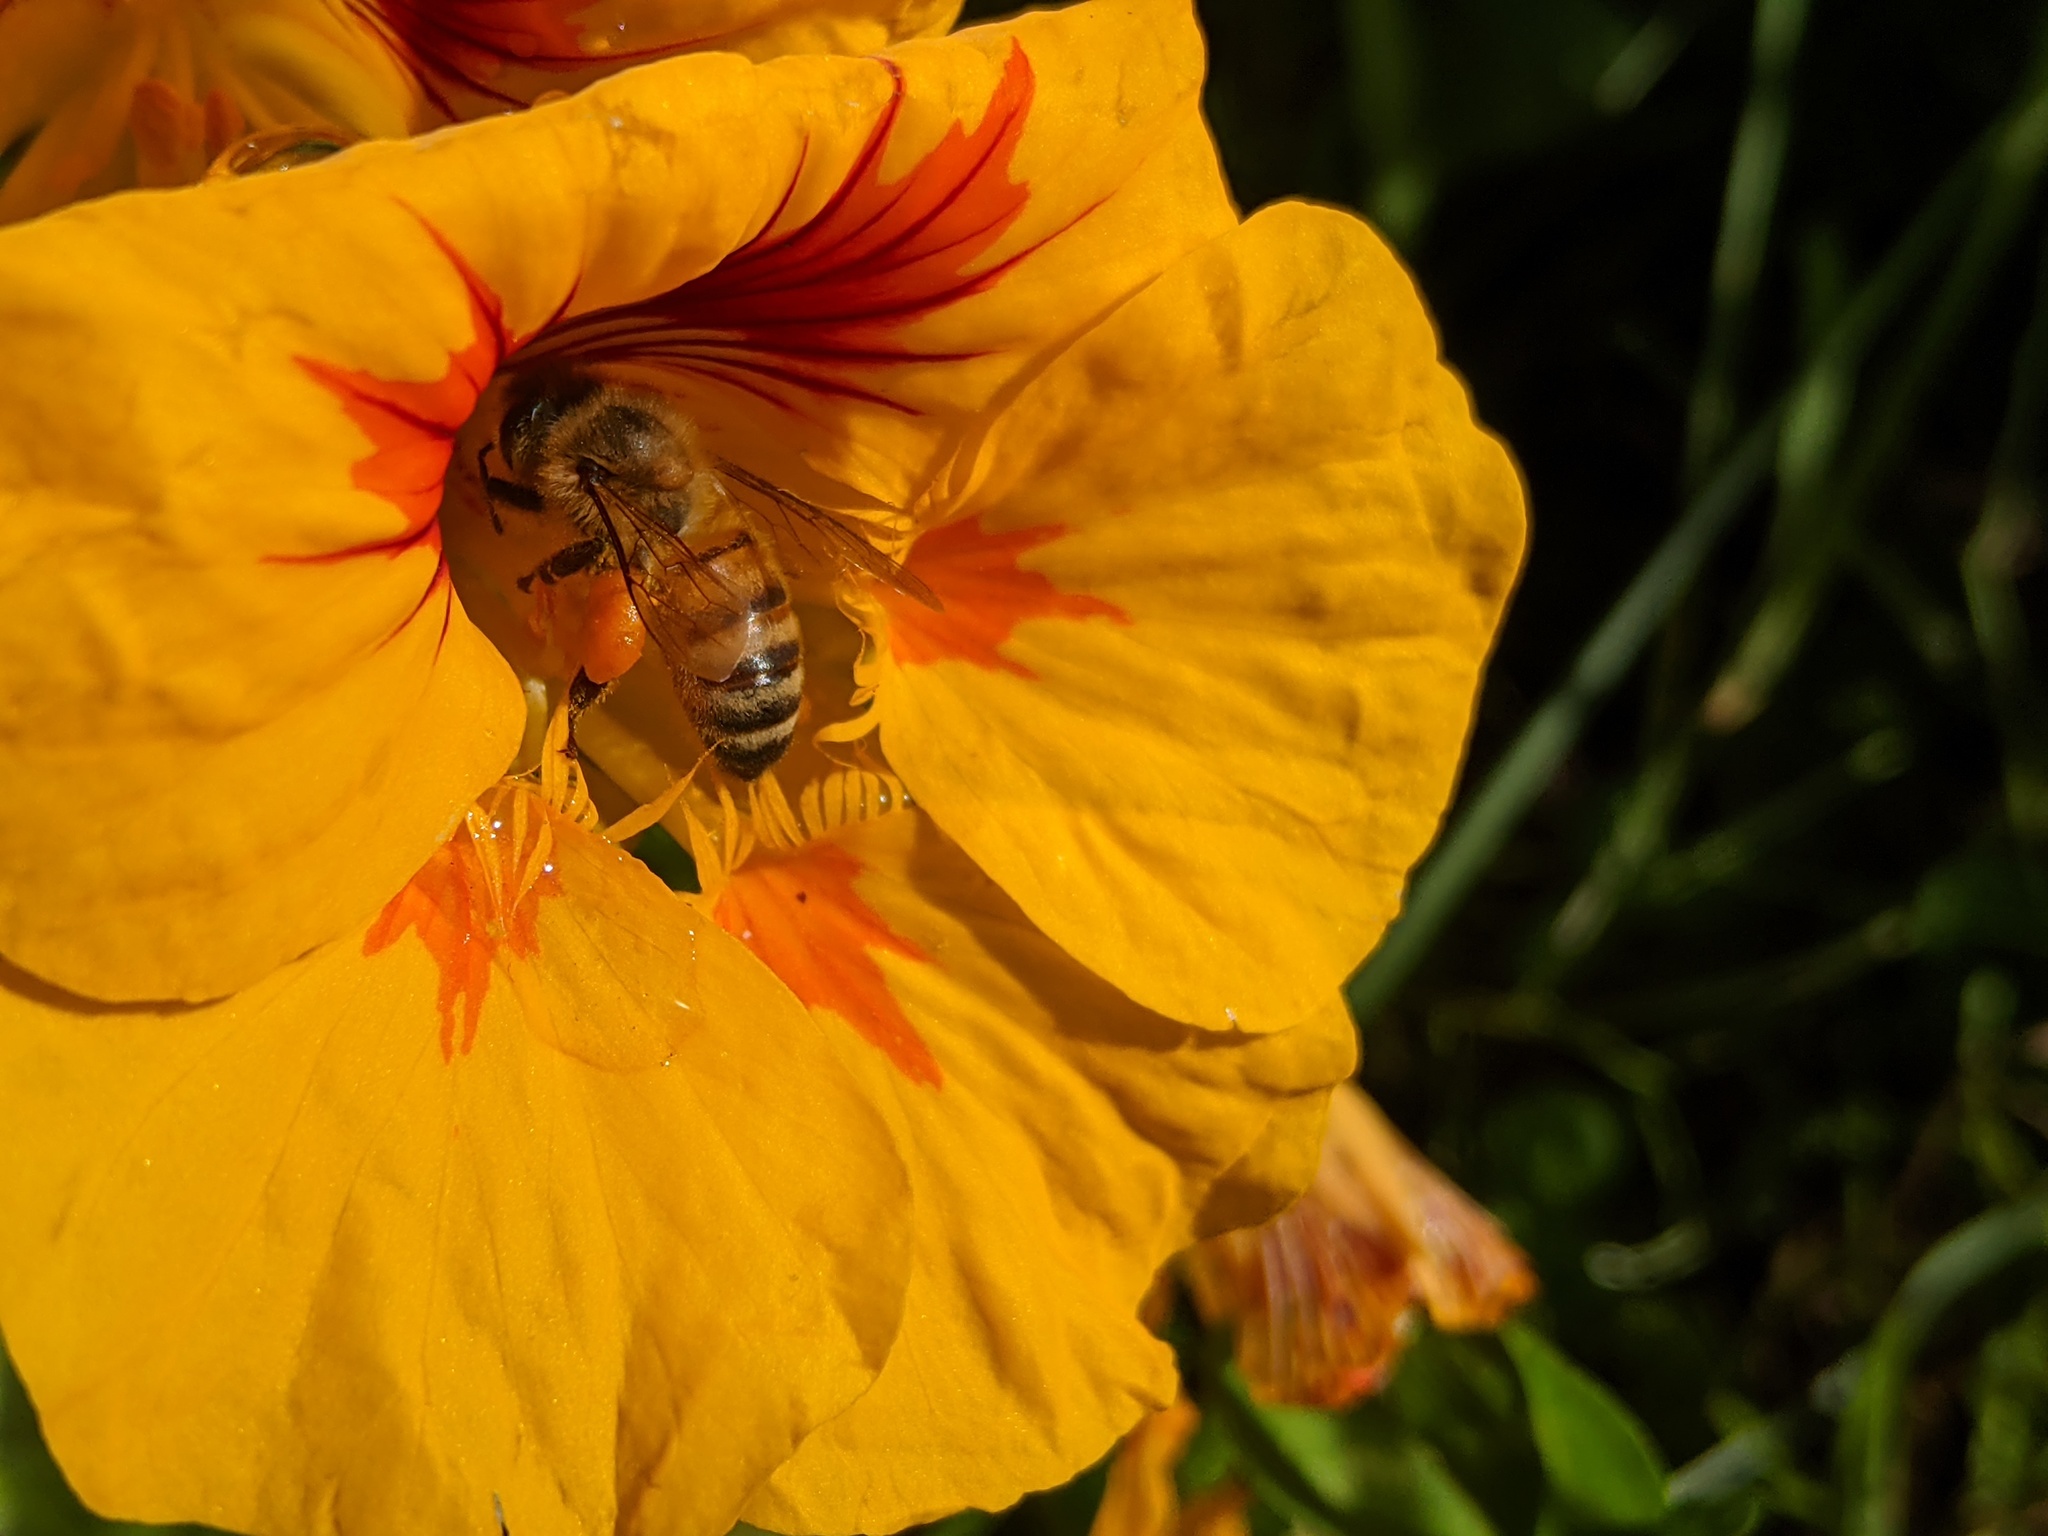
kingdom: Animalia
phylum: Arthropoda
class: Insecta
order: Hymenoptera
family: Apidae
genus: Apis
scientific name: Apis mellifera
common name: Honey bee
